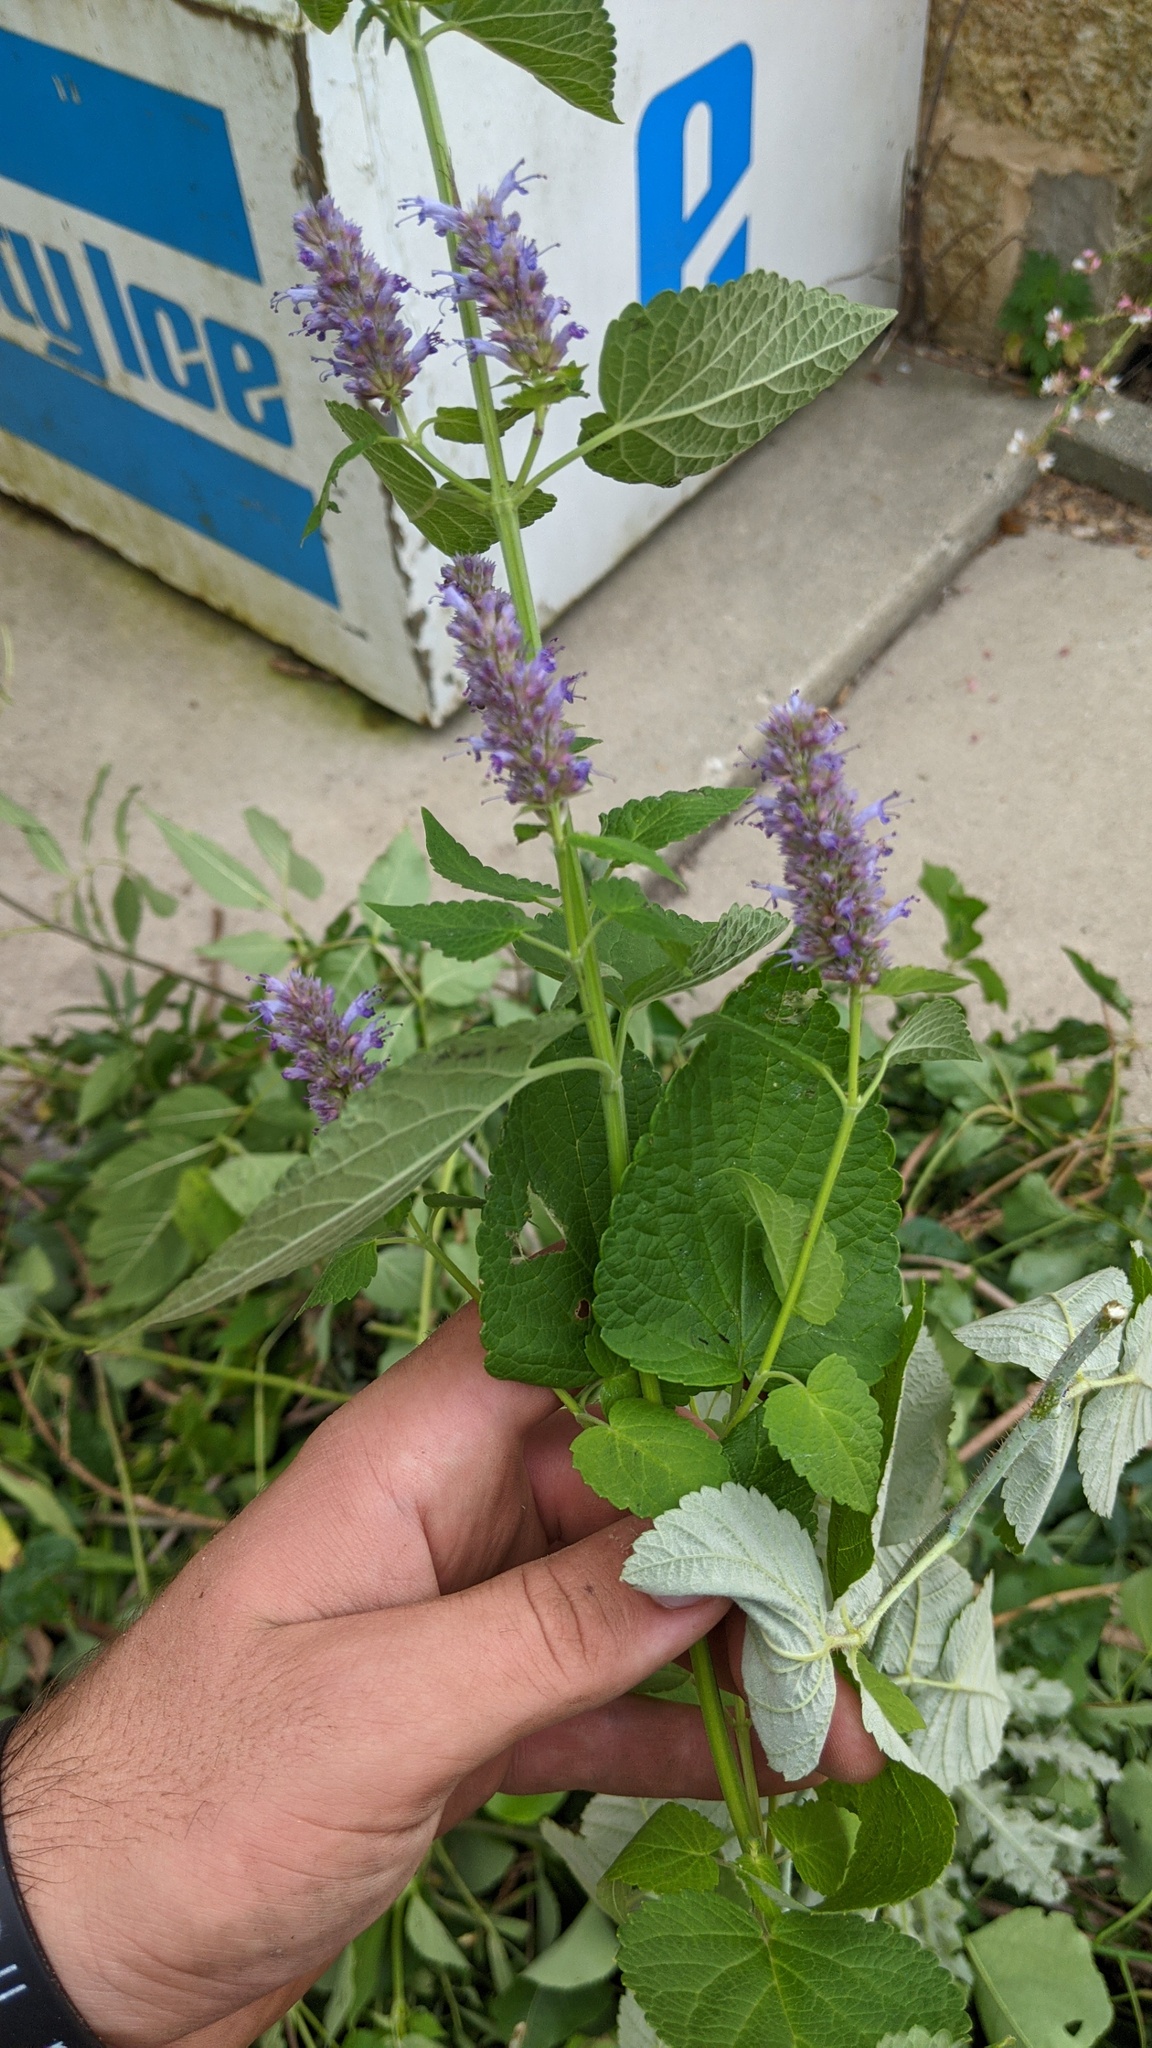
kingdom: Plantae
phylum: Tracheophyta
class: Magnoliopsida
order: Lamiales
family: Lamiaceae
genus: Agastache
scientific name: Agastache rugosa
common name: Mint
